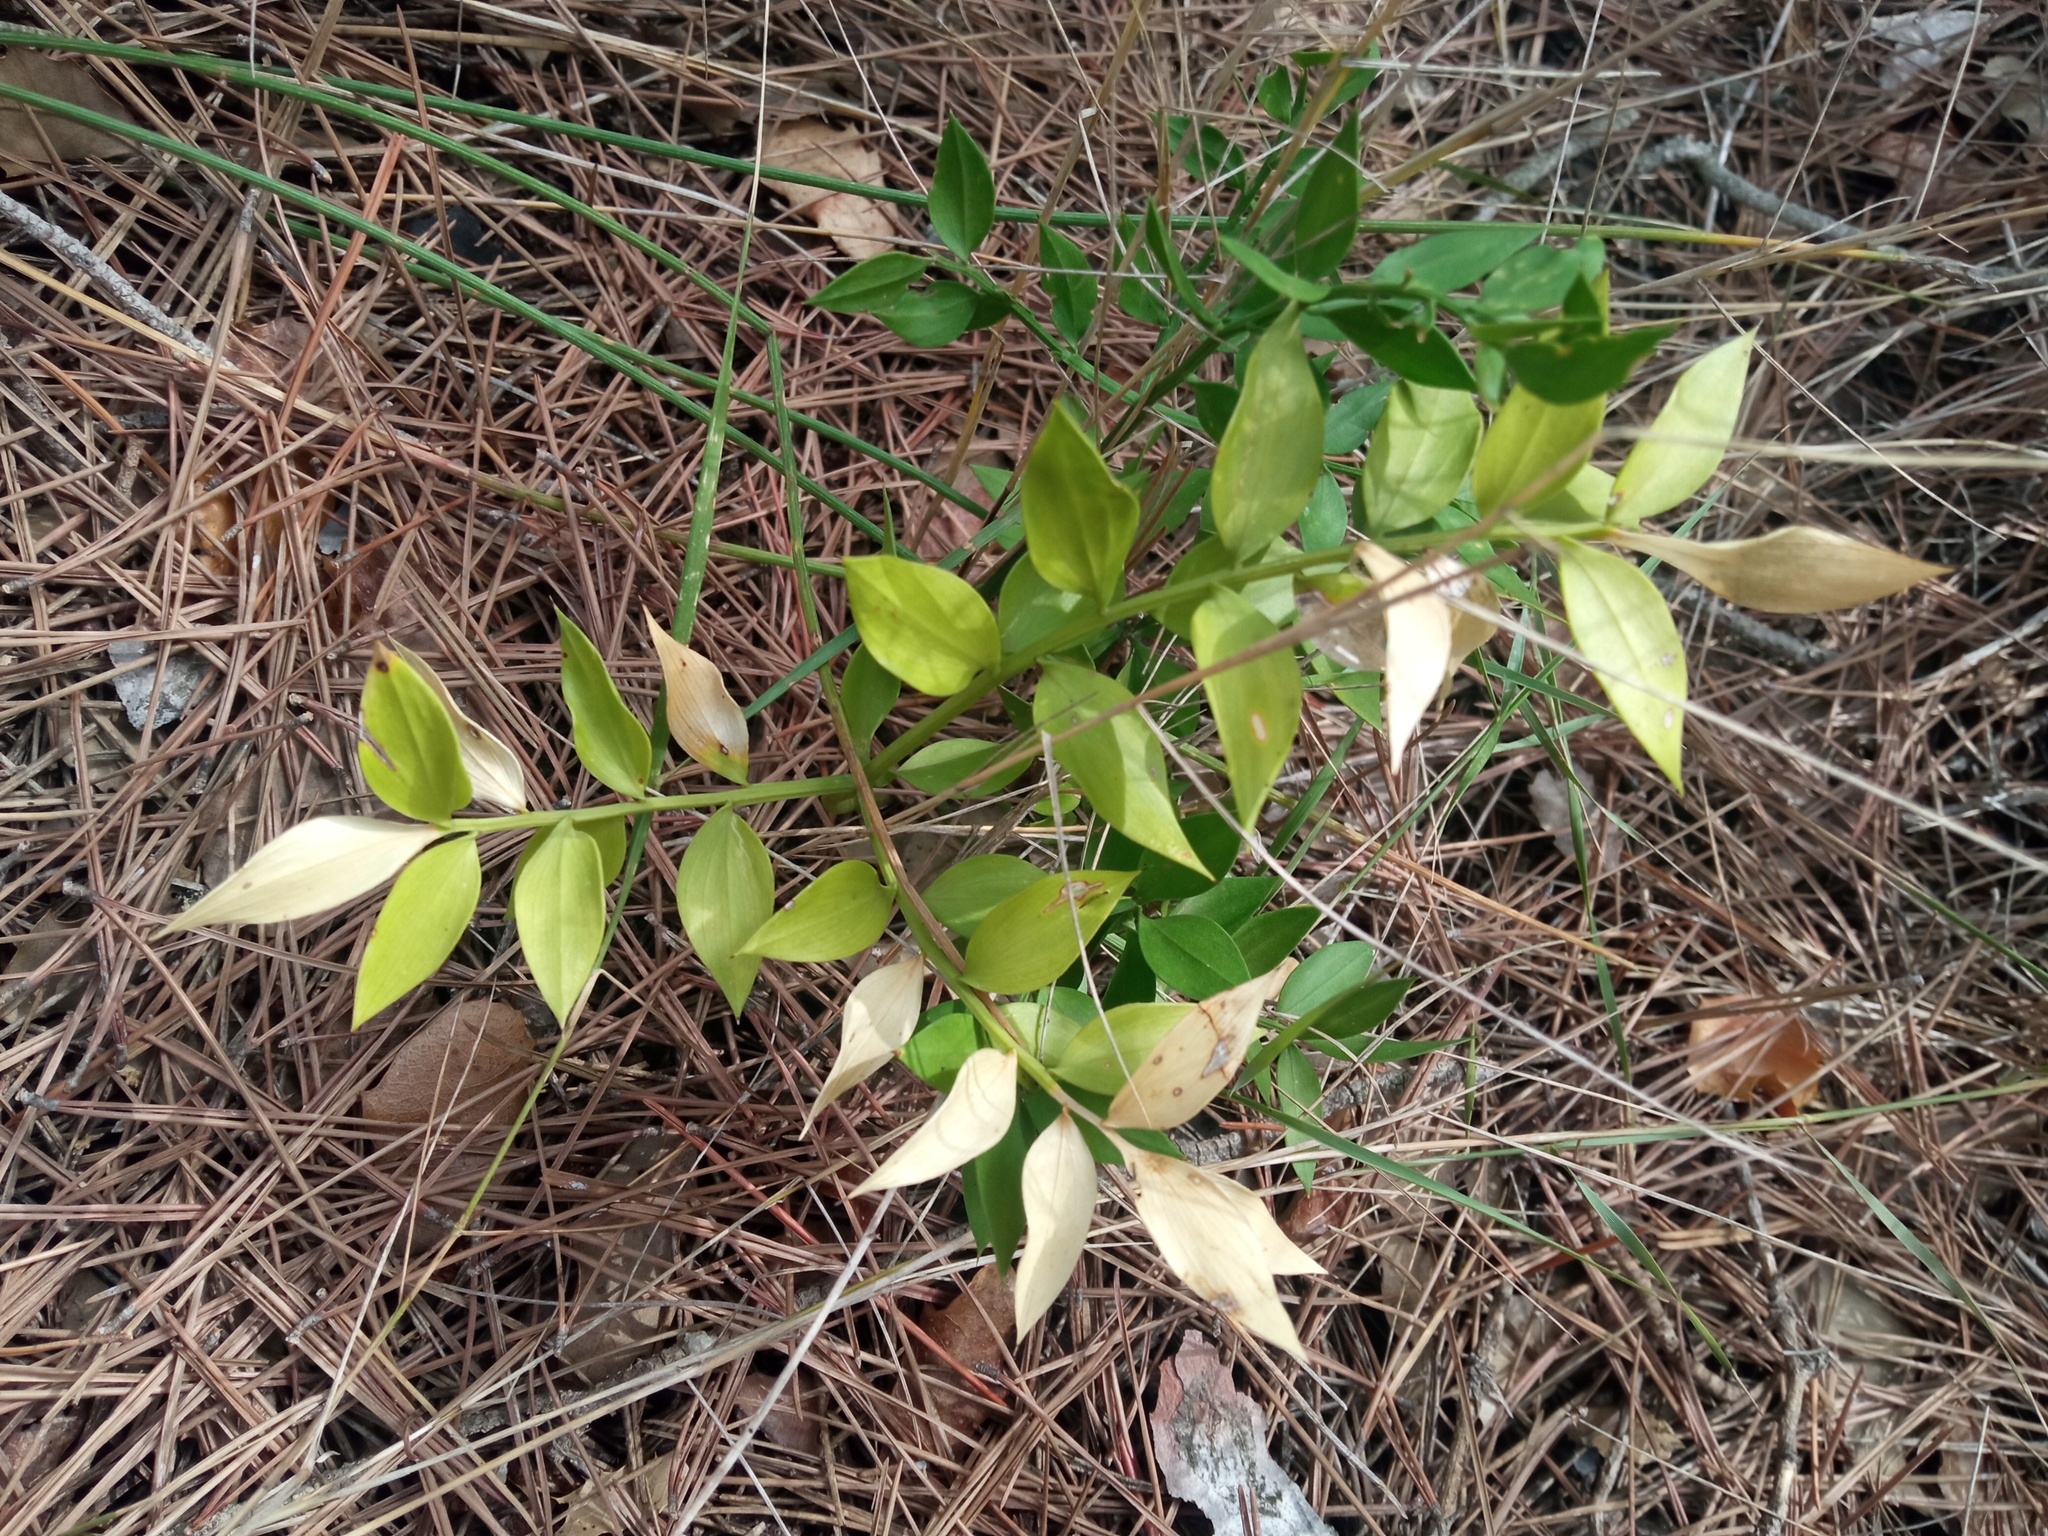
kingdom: Plantae
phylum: Tracheophyta
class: Liliopsida
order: Asparagales
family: Asparagaceae
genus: Ruscus
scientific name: Ruscus aculeatus
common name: Butcher's-broom
